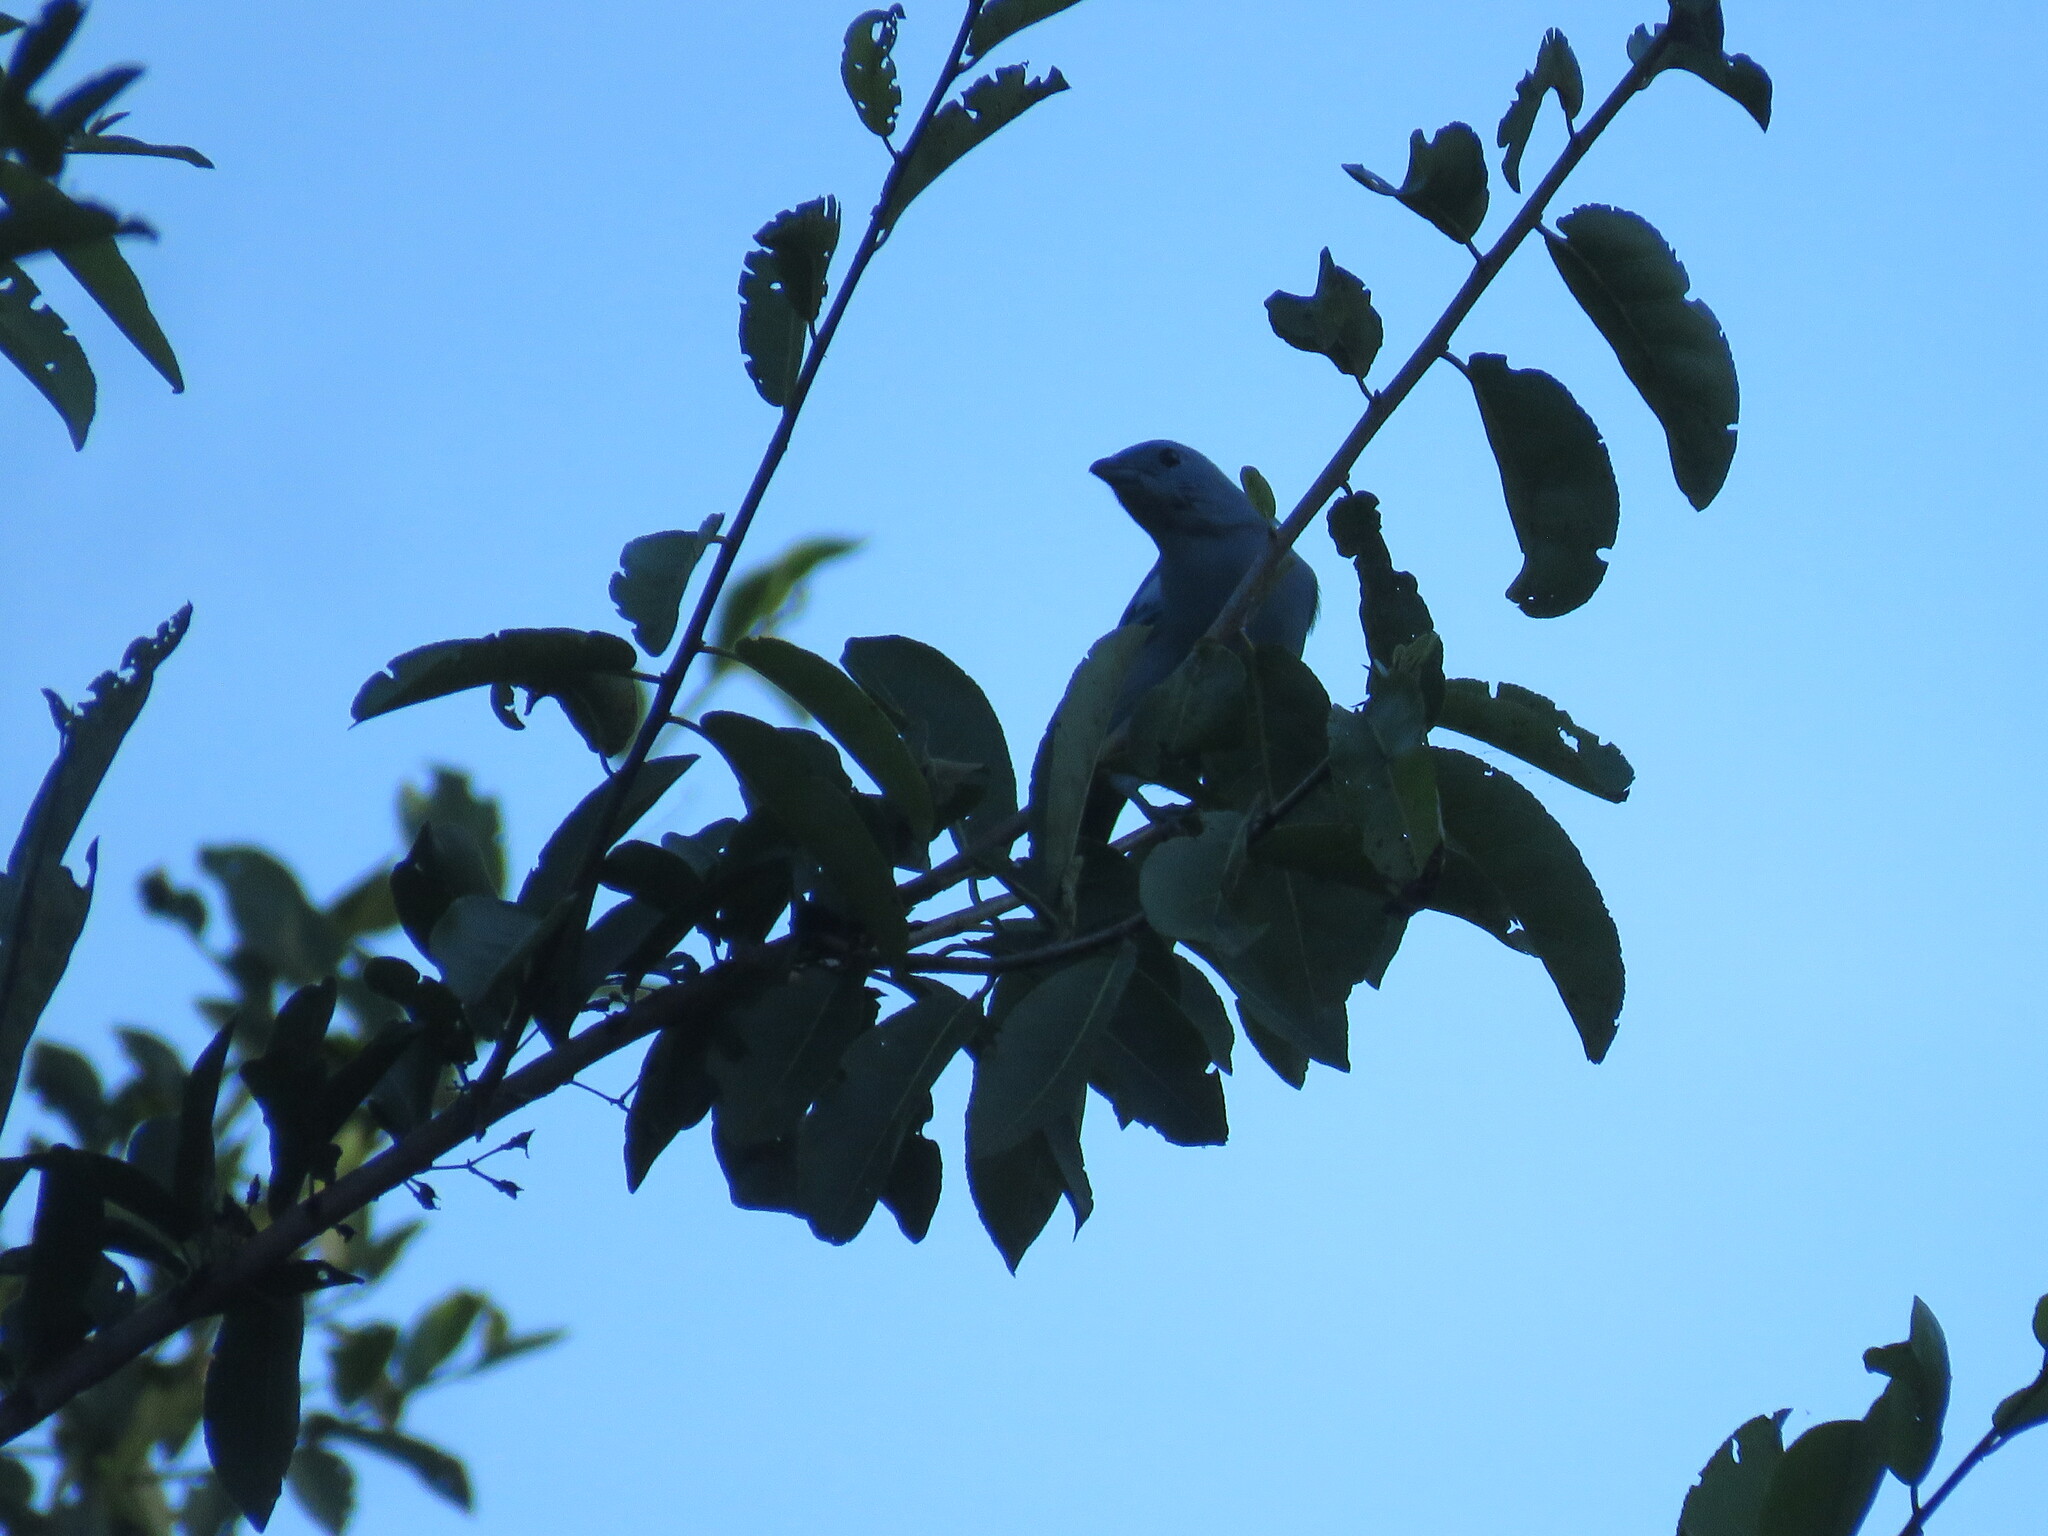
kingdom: Animalia
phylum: Chordata
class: Aves
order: Passeriformes
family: Thraupidae
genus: Thraupis
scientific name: Thraupis episcopus
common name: Blue-grey tanager
